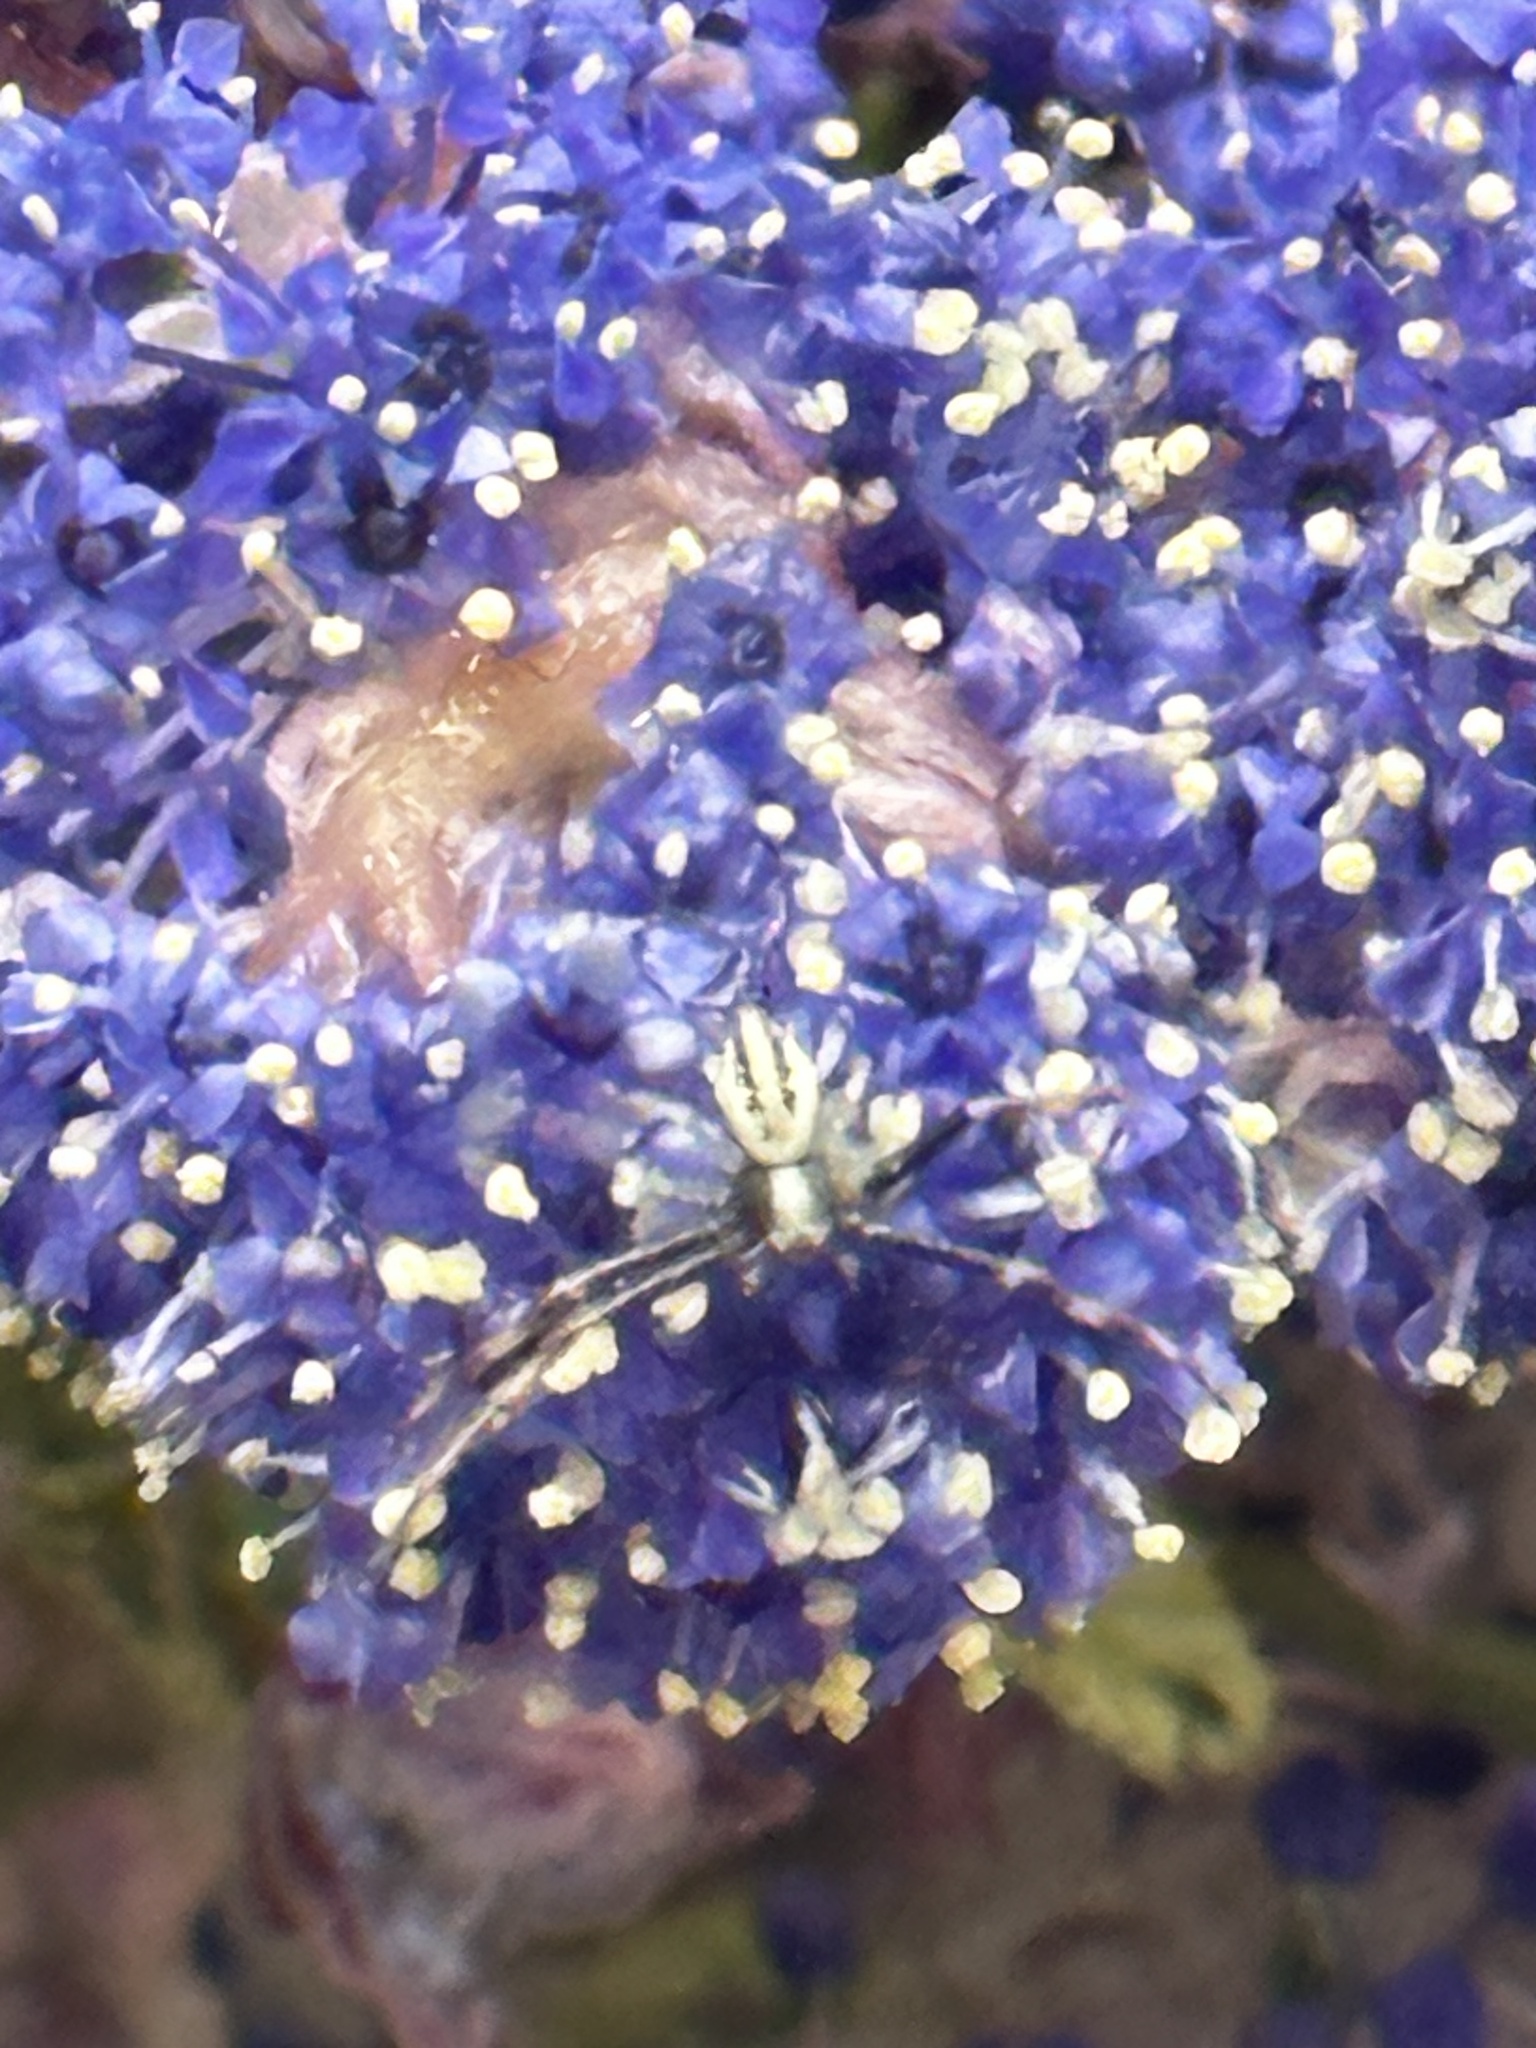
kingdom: Animalia
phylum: Arthropoda
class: Arachnida
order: Araneae
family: Thomisidae
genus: Misumena
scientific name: Misumena vatia
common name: Goldenrod crab spider
